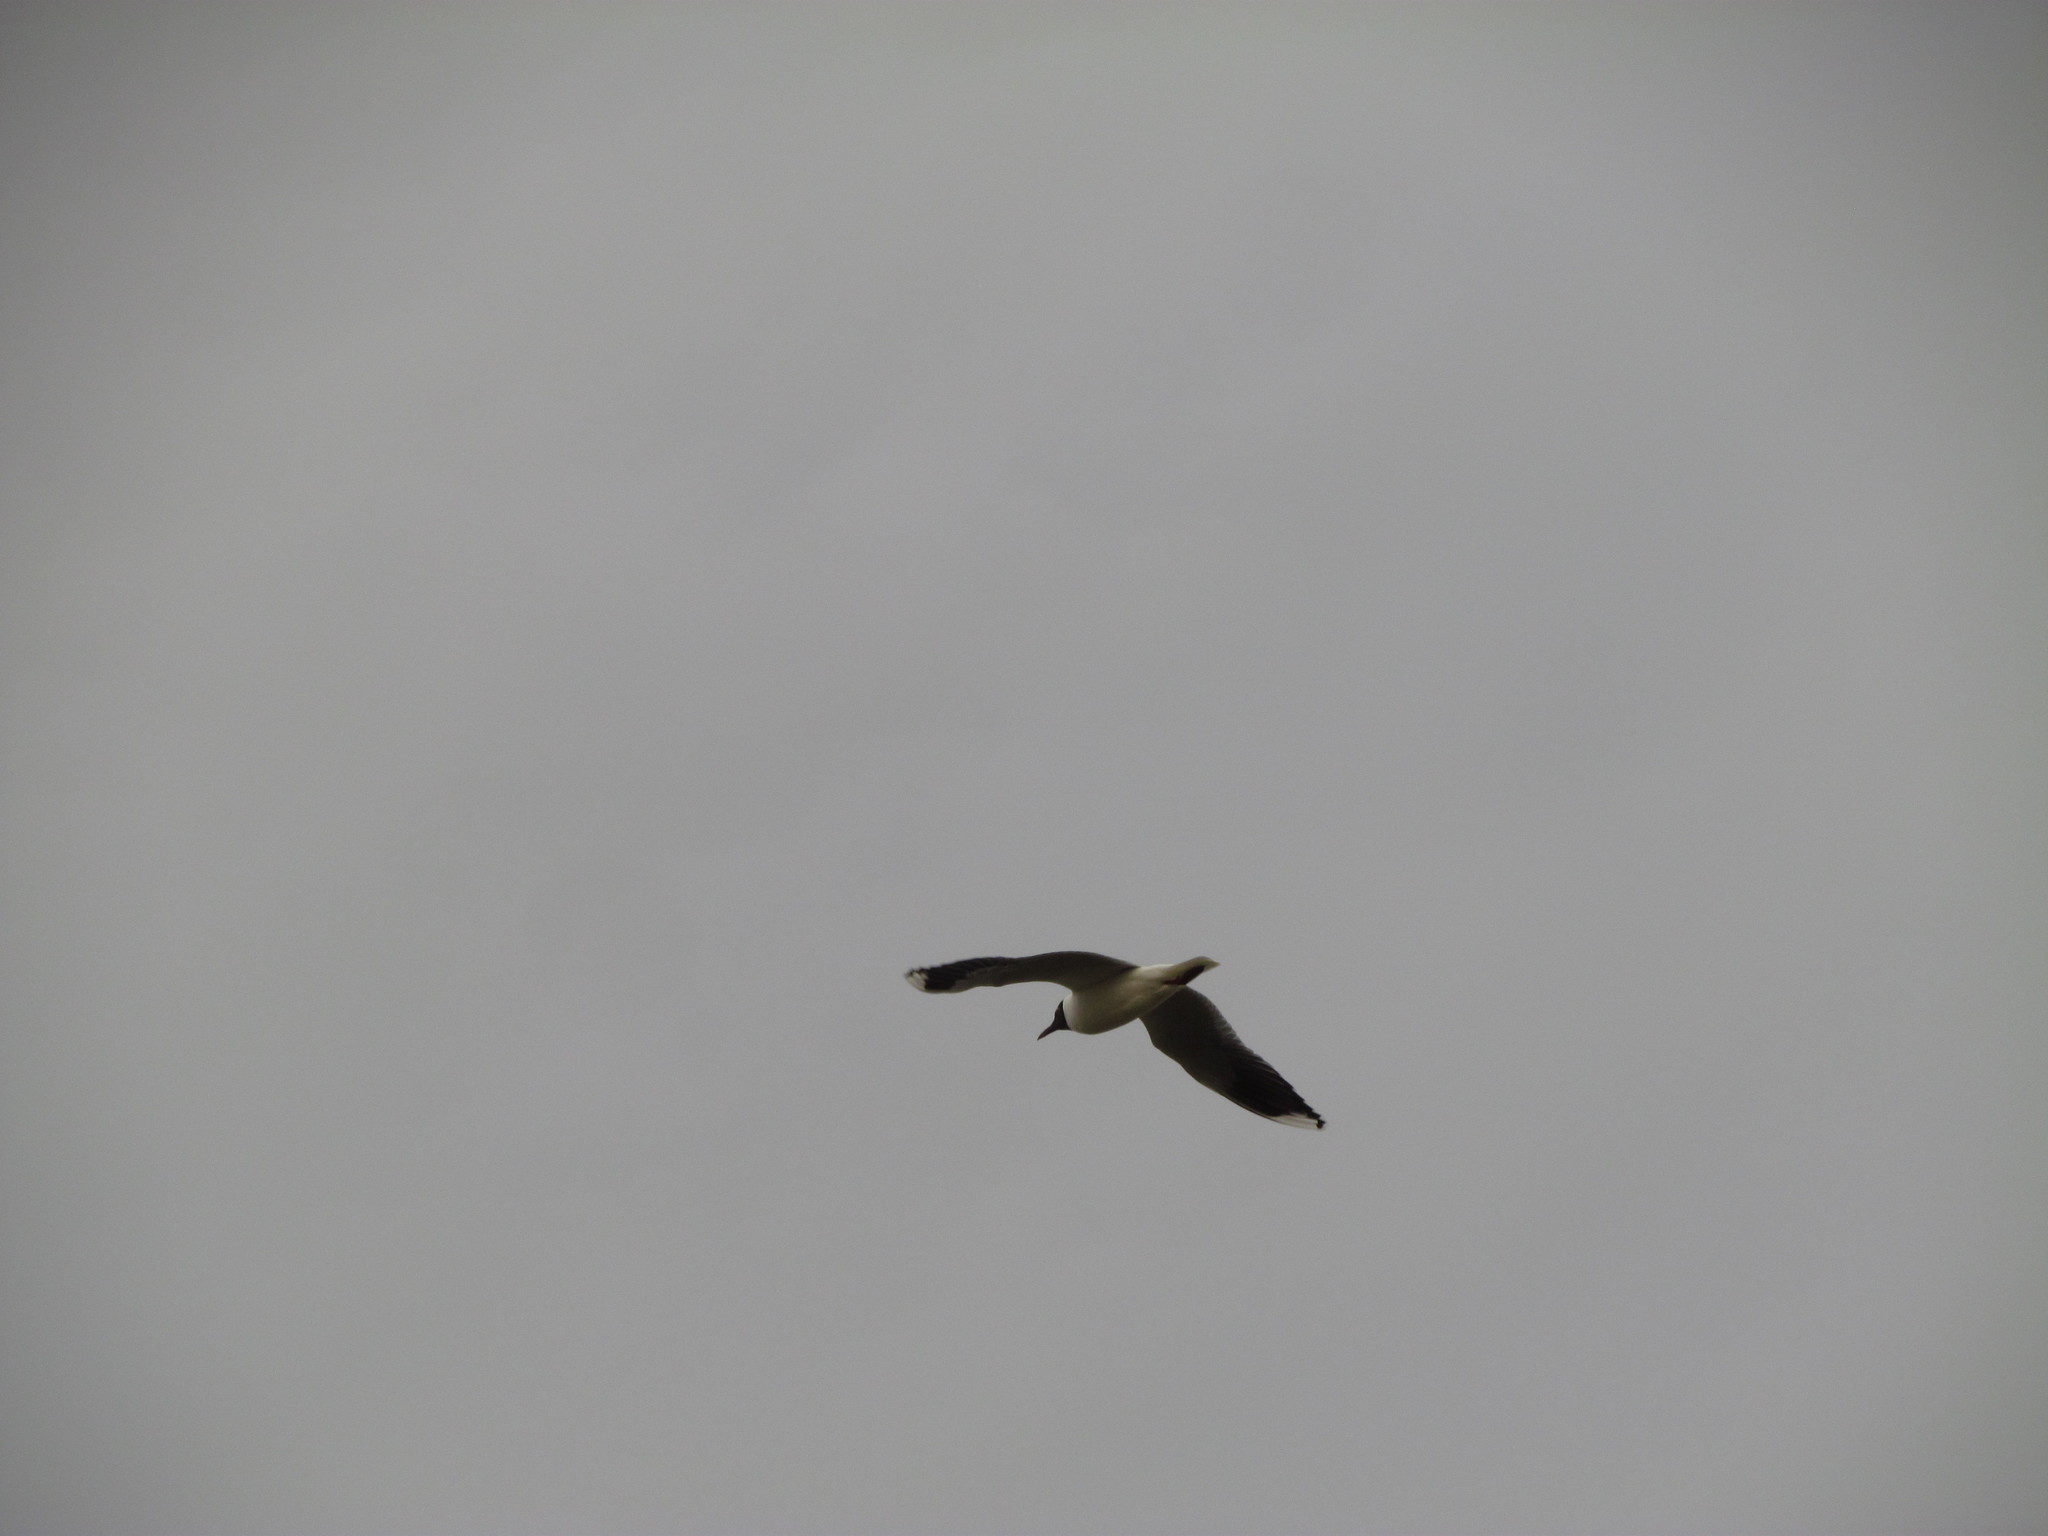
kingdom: Animalia
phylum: Chordata
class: Aves
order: Charadriiformes
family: Laridae
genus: Chroicocephalus
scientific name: Chroicocephalus maculipennis
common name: Brown-hooded gull
